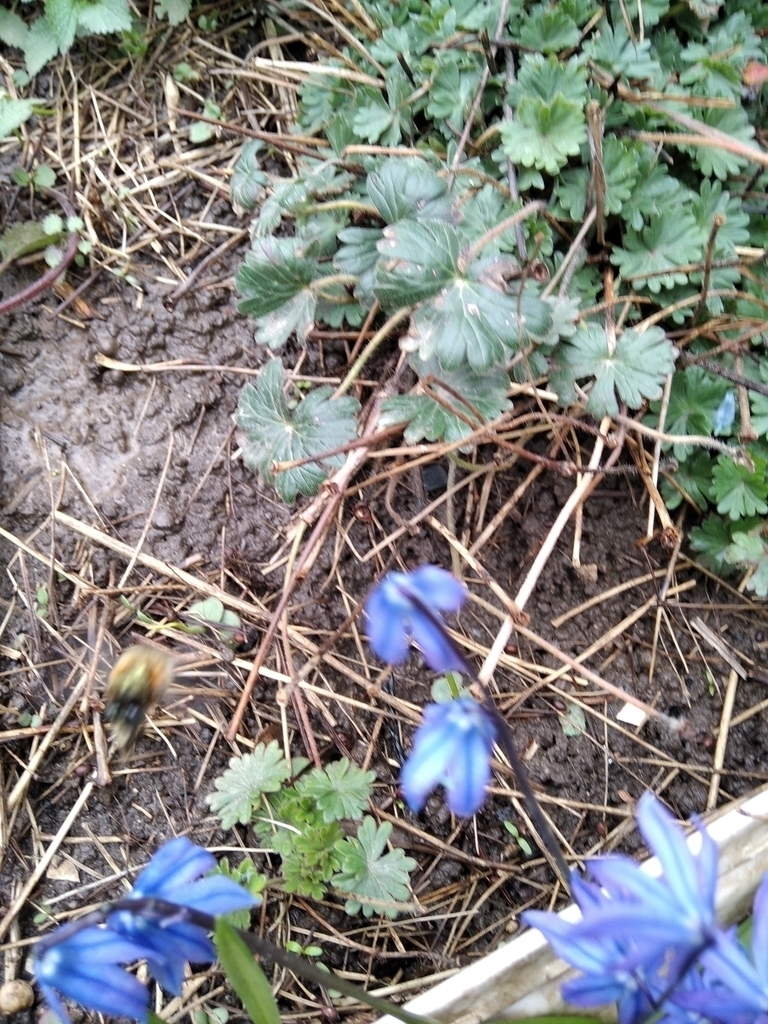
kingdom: Animalia
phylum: Arthropoda
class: Insecta
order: Hymenoptera
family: Apidae
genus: Anthophora
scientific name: Anthophora
